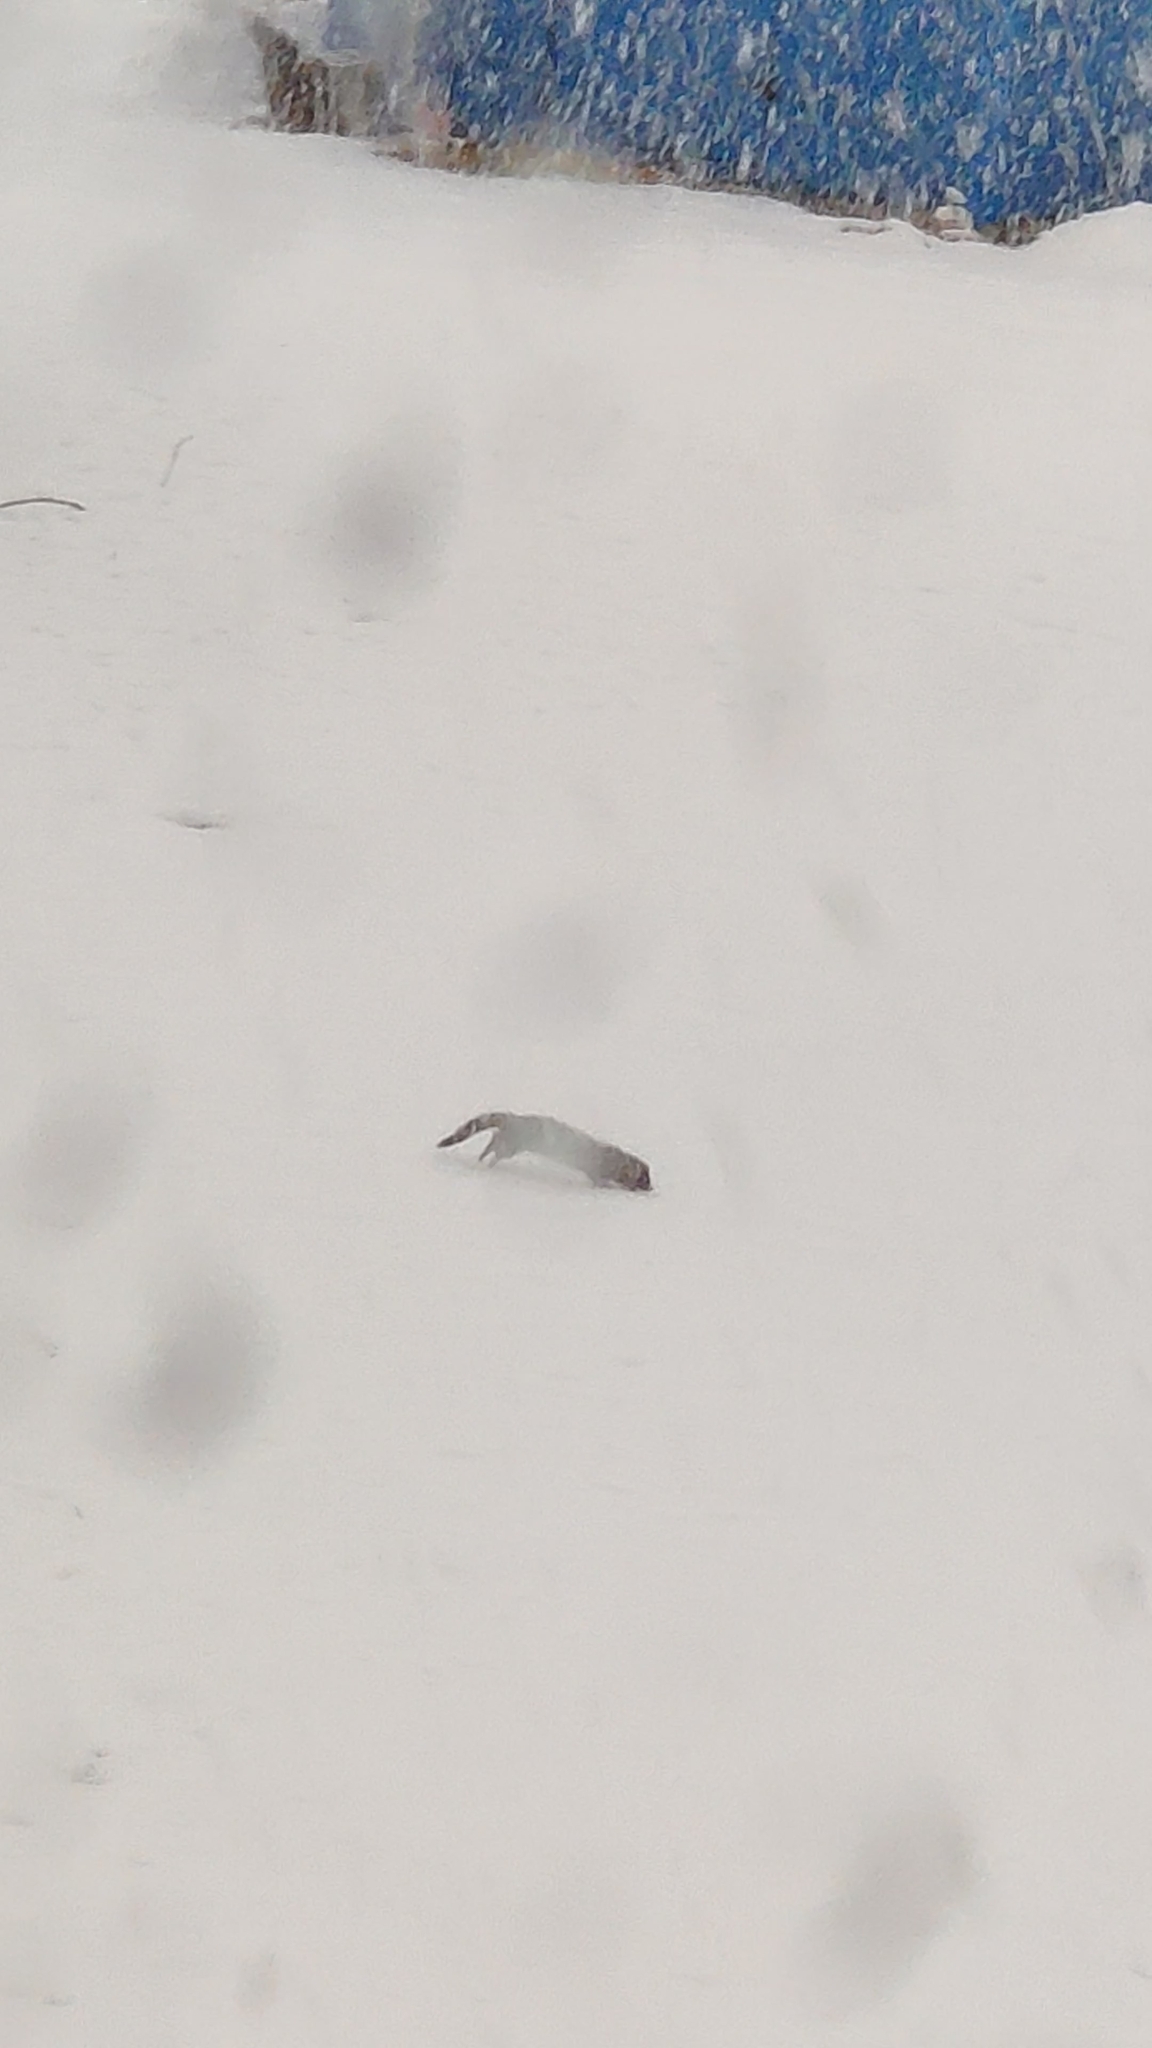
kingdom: Animalia
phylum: Chordata
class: Mammalia
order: Carnivora
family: Mustelidae
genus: Mustela
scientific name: Mustela
